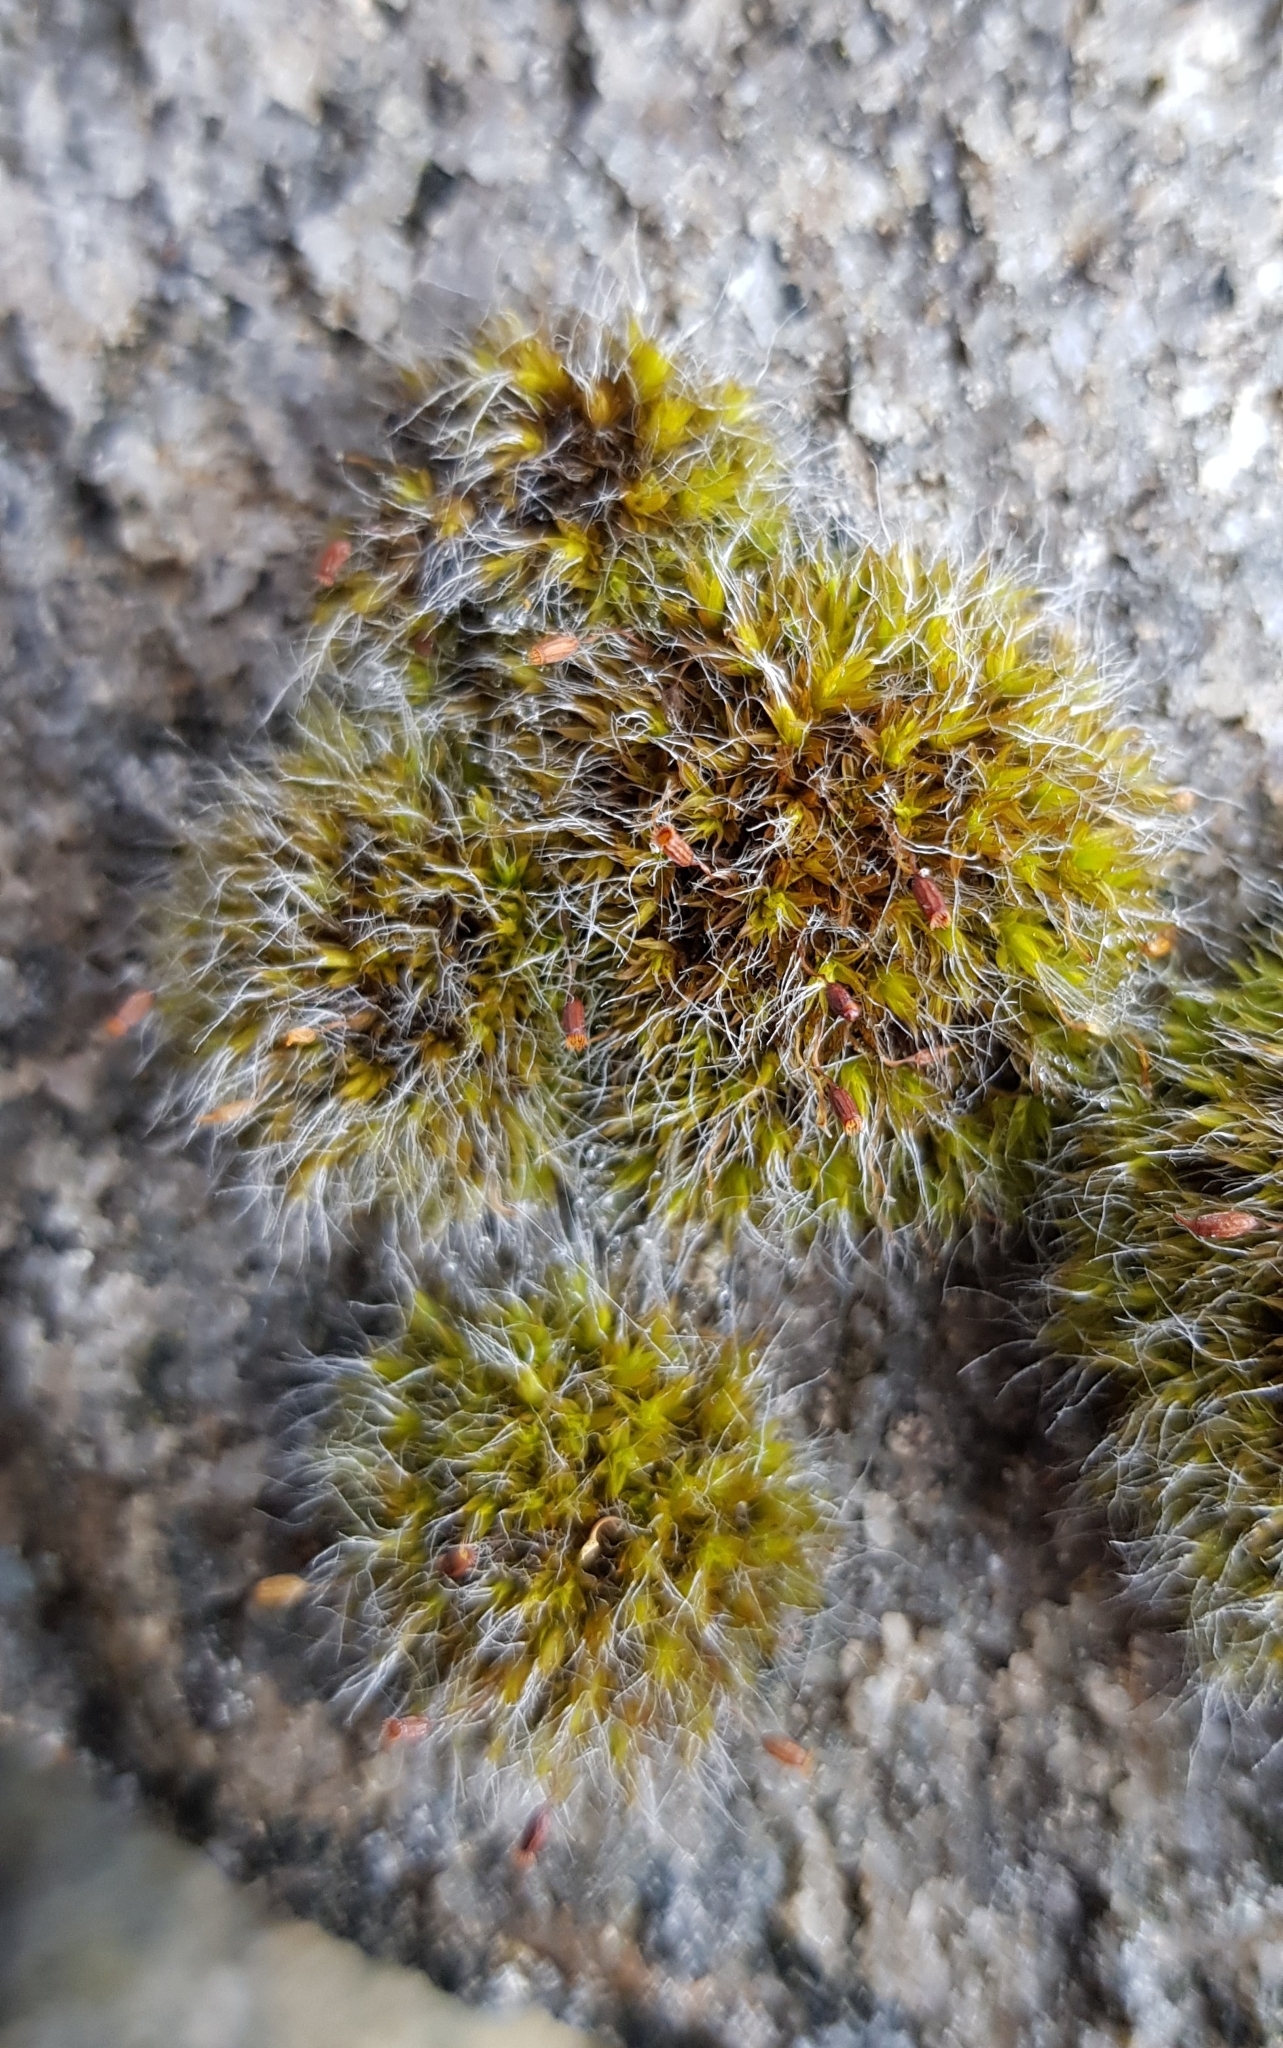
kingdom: Plantae
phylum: Bryophyta
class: Bryopsida
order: Grimmiales
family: Grimmiaceae
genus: Grimmia
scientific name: Grimmia pulvinata
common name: Grey-cushioned grimmia
